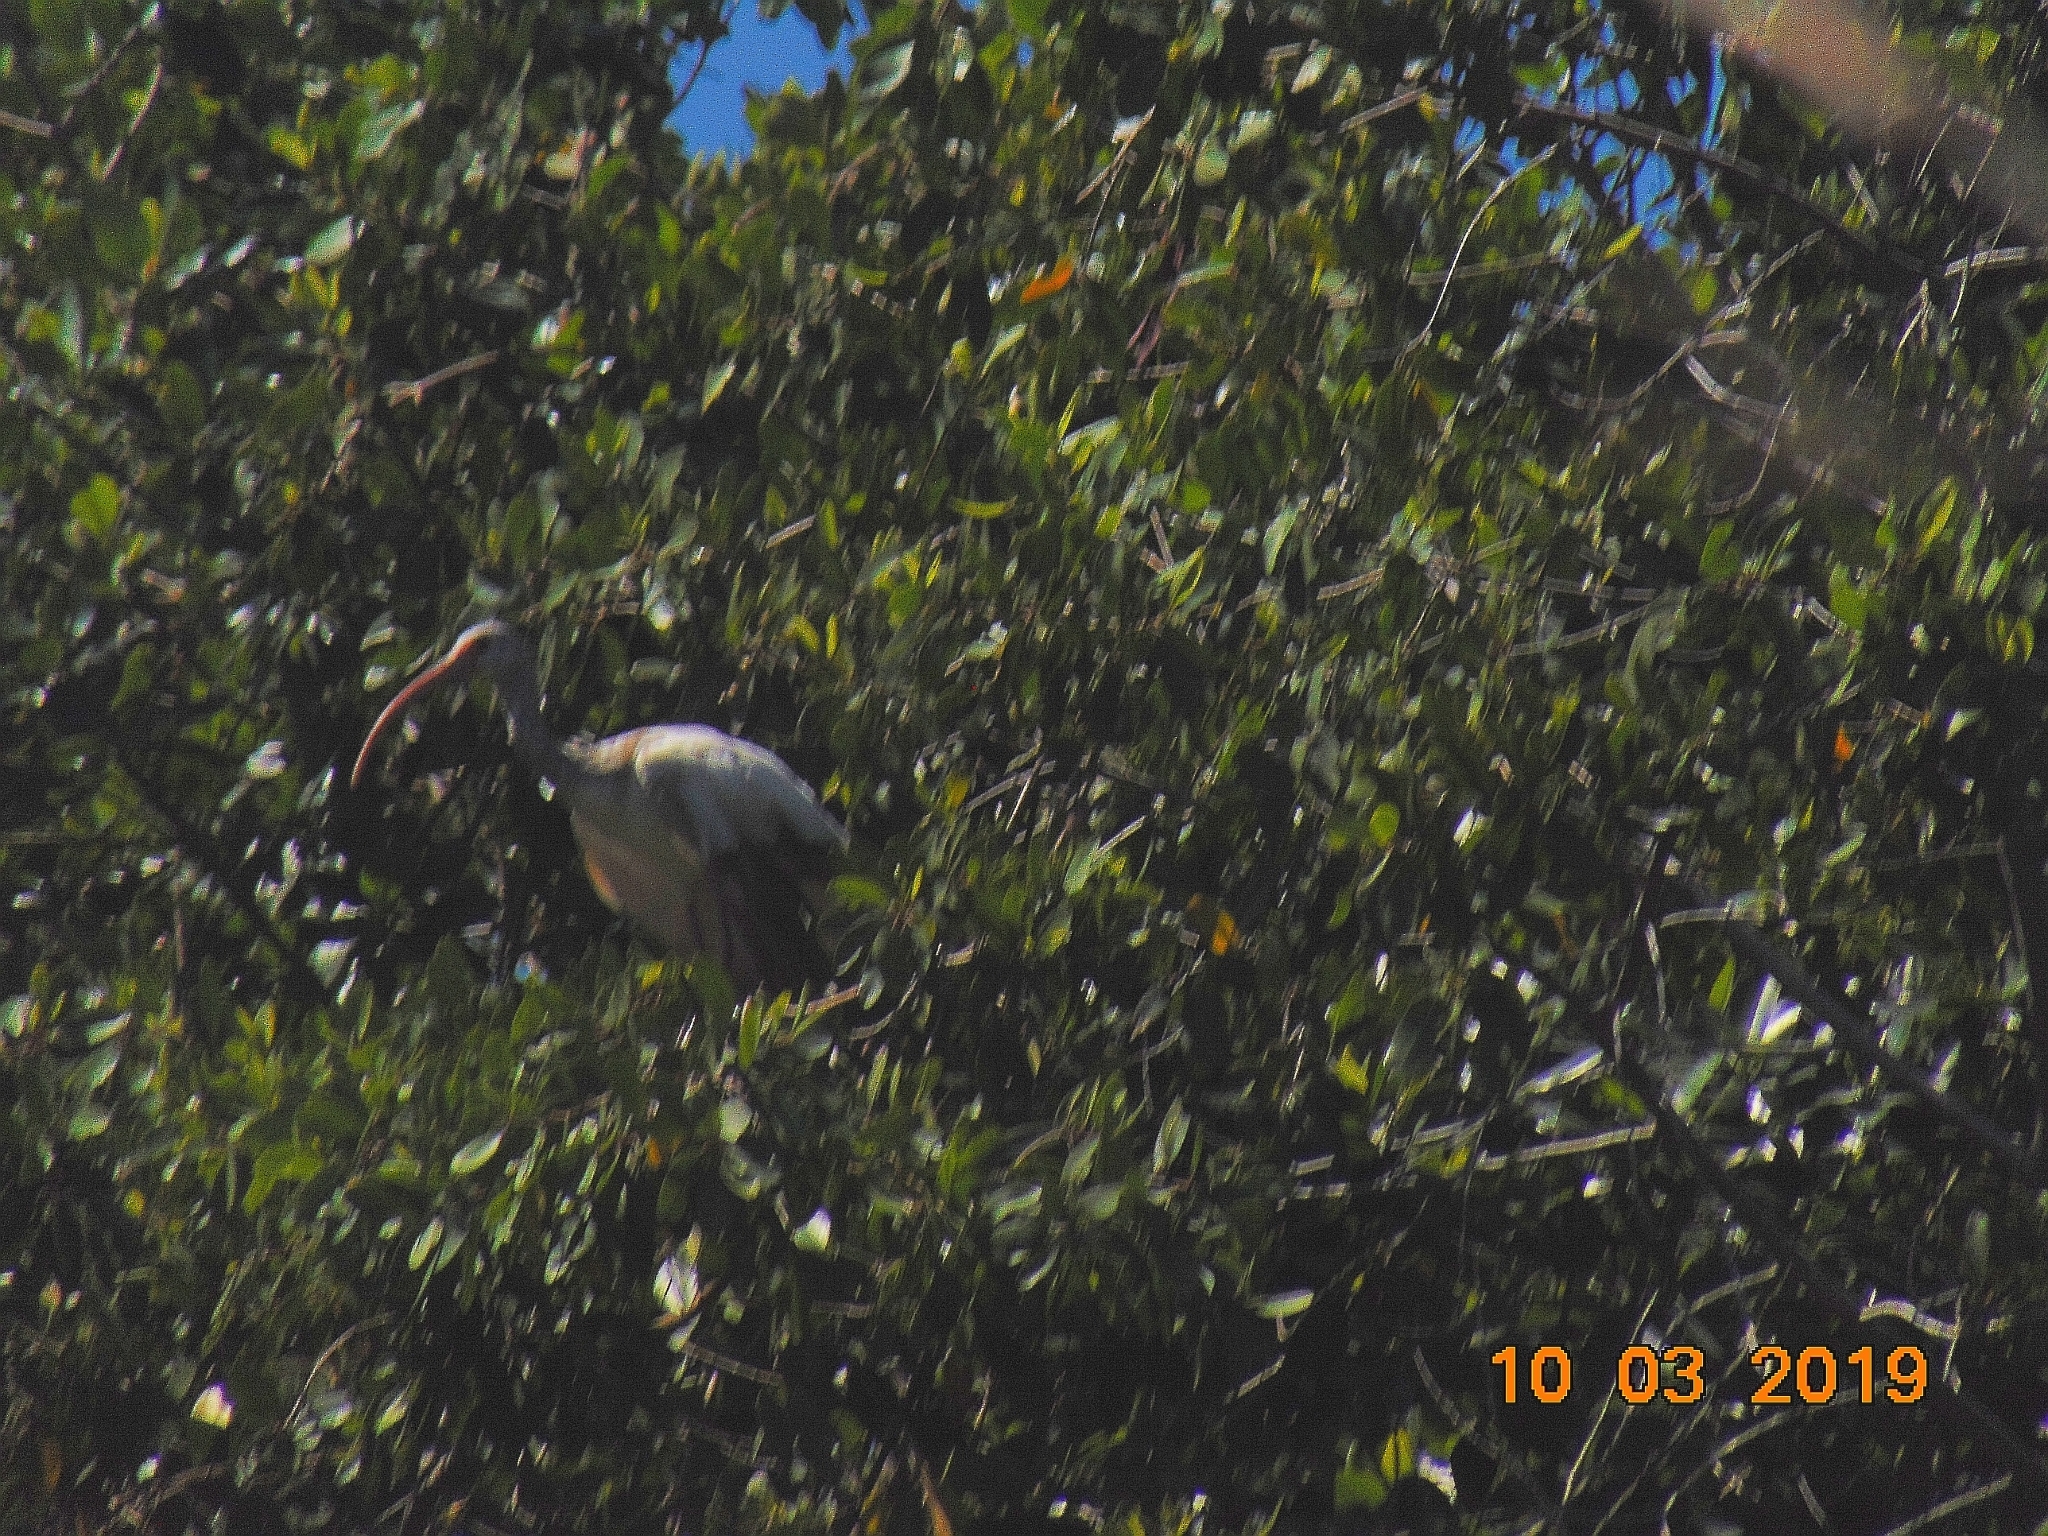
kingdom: Animalia
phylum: Chordata
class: Aves
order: Pelecaniformes
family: Threskiornithidae
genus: Eudocimus
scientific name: Eudocimus albus
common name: White ibis
